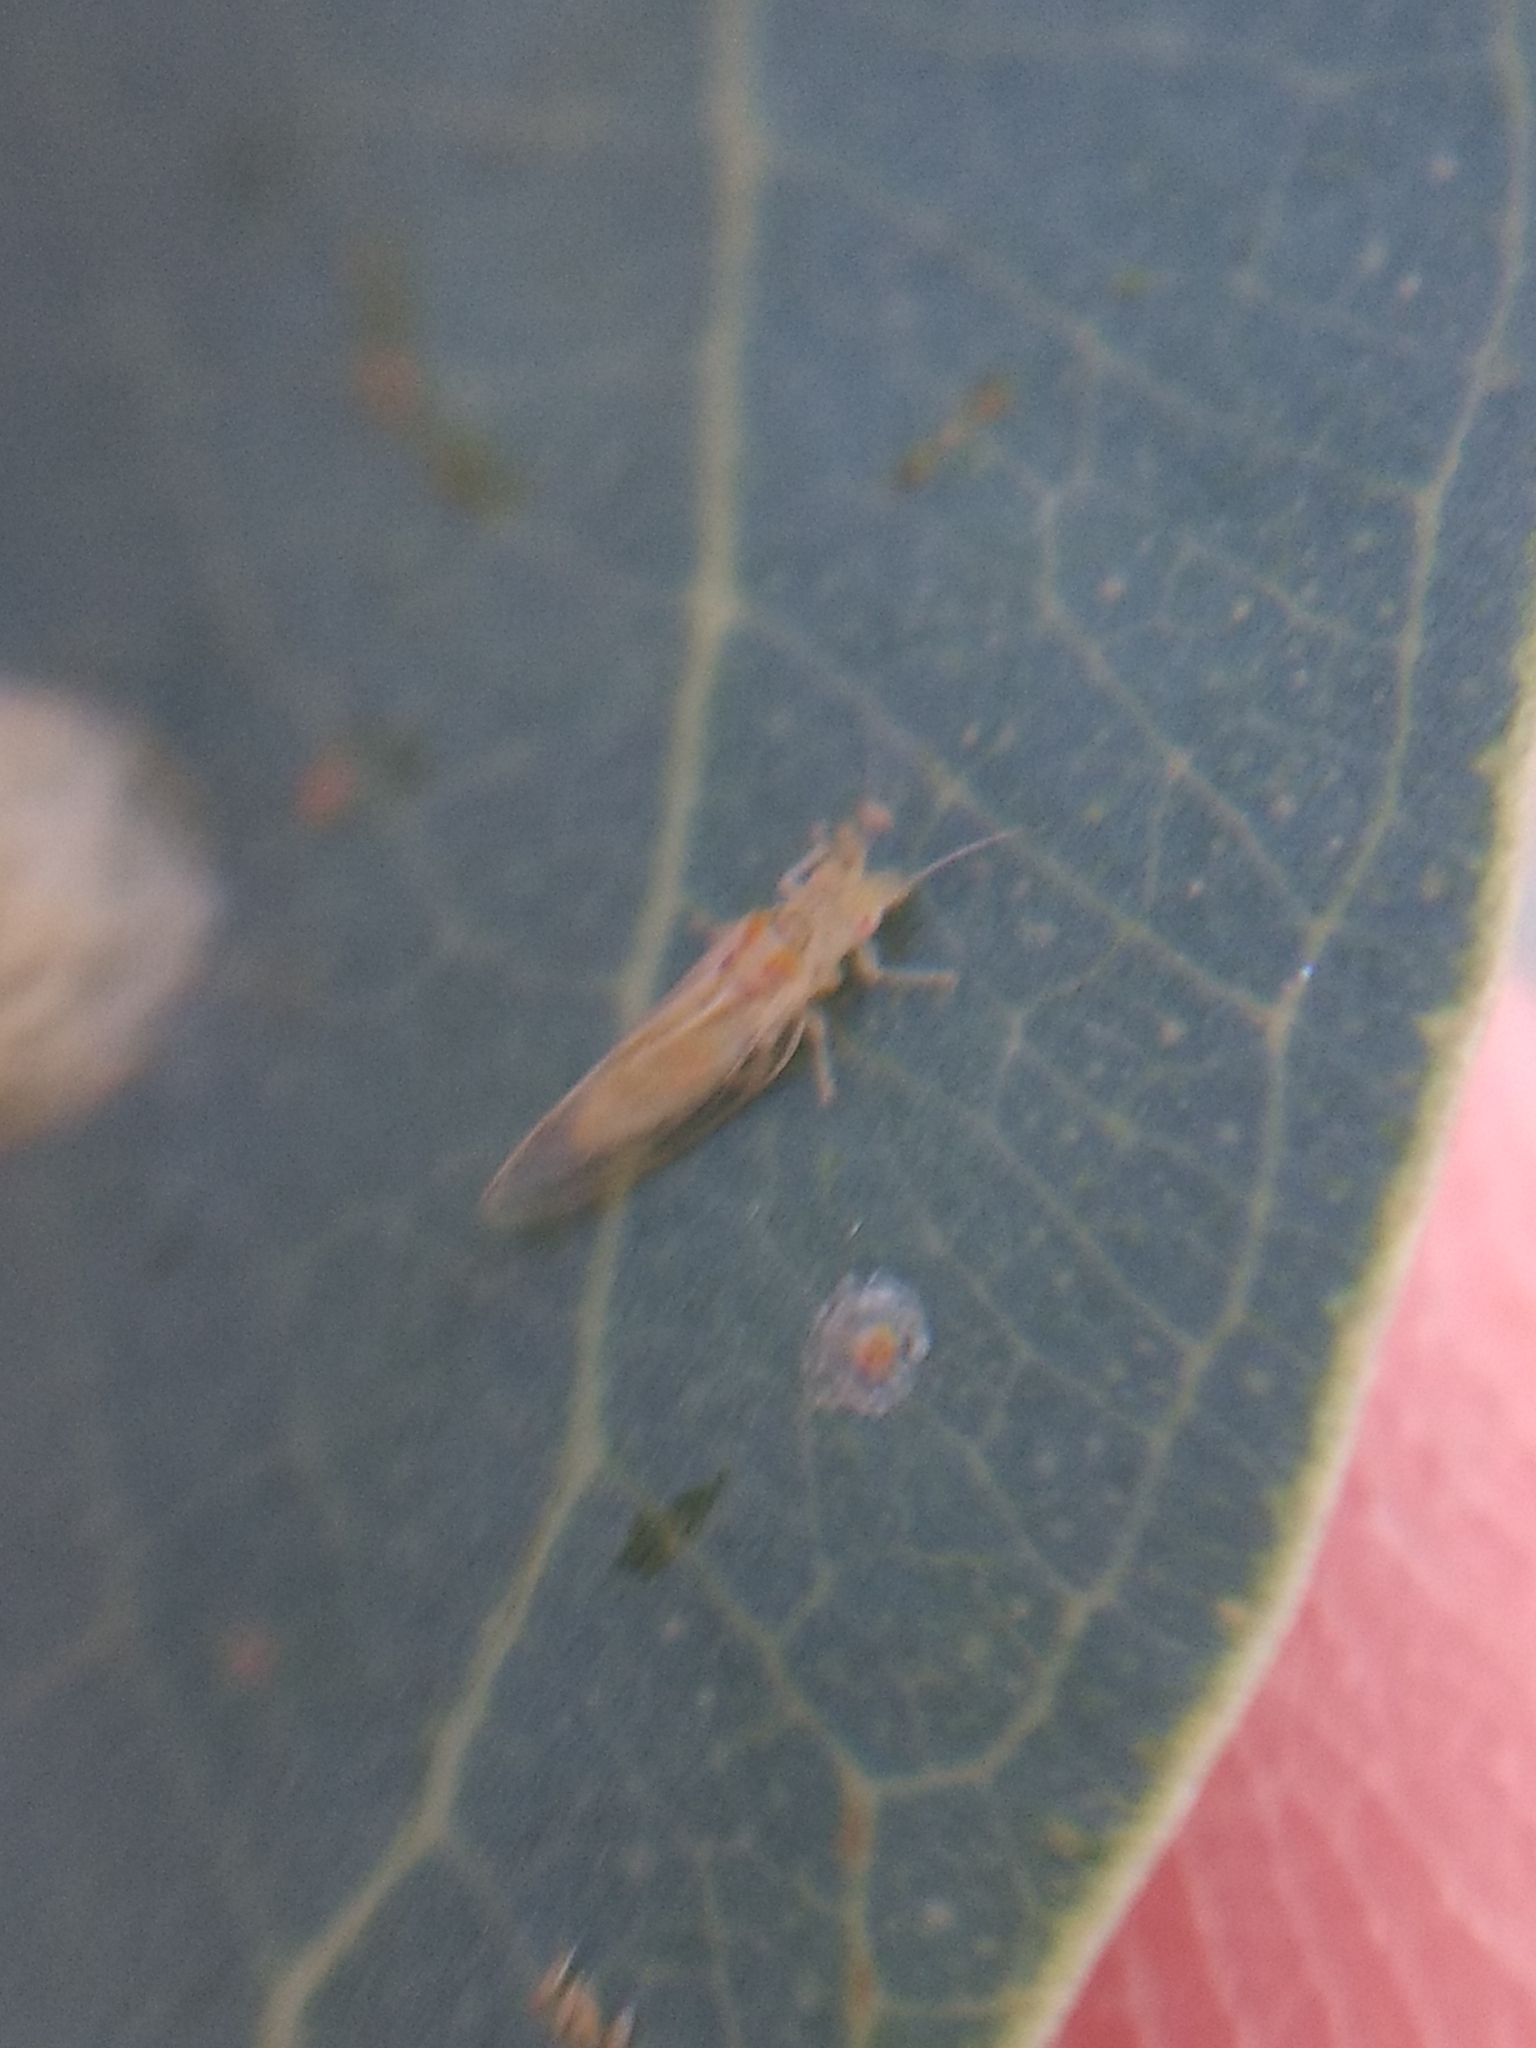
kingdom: Animalia
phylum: Arthropoda
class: Insecta
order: Hemiptera
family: Aphalaridae
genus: Glycaspis
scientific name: Glycaspis brimblecombei
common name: Red gum lerp psyllid
